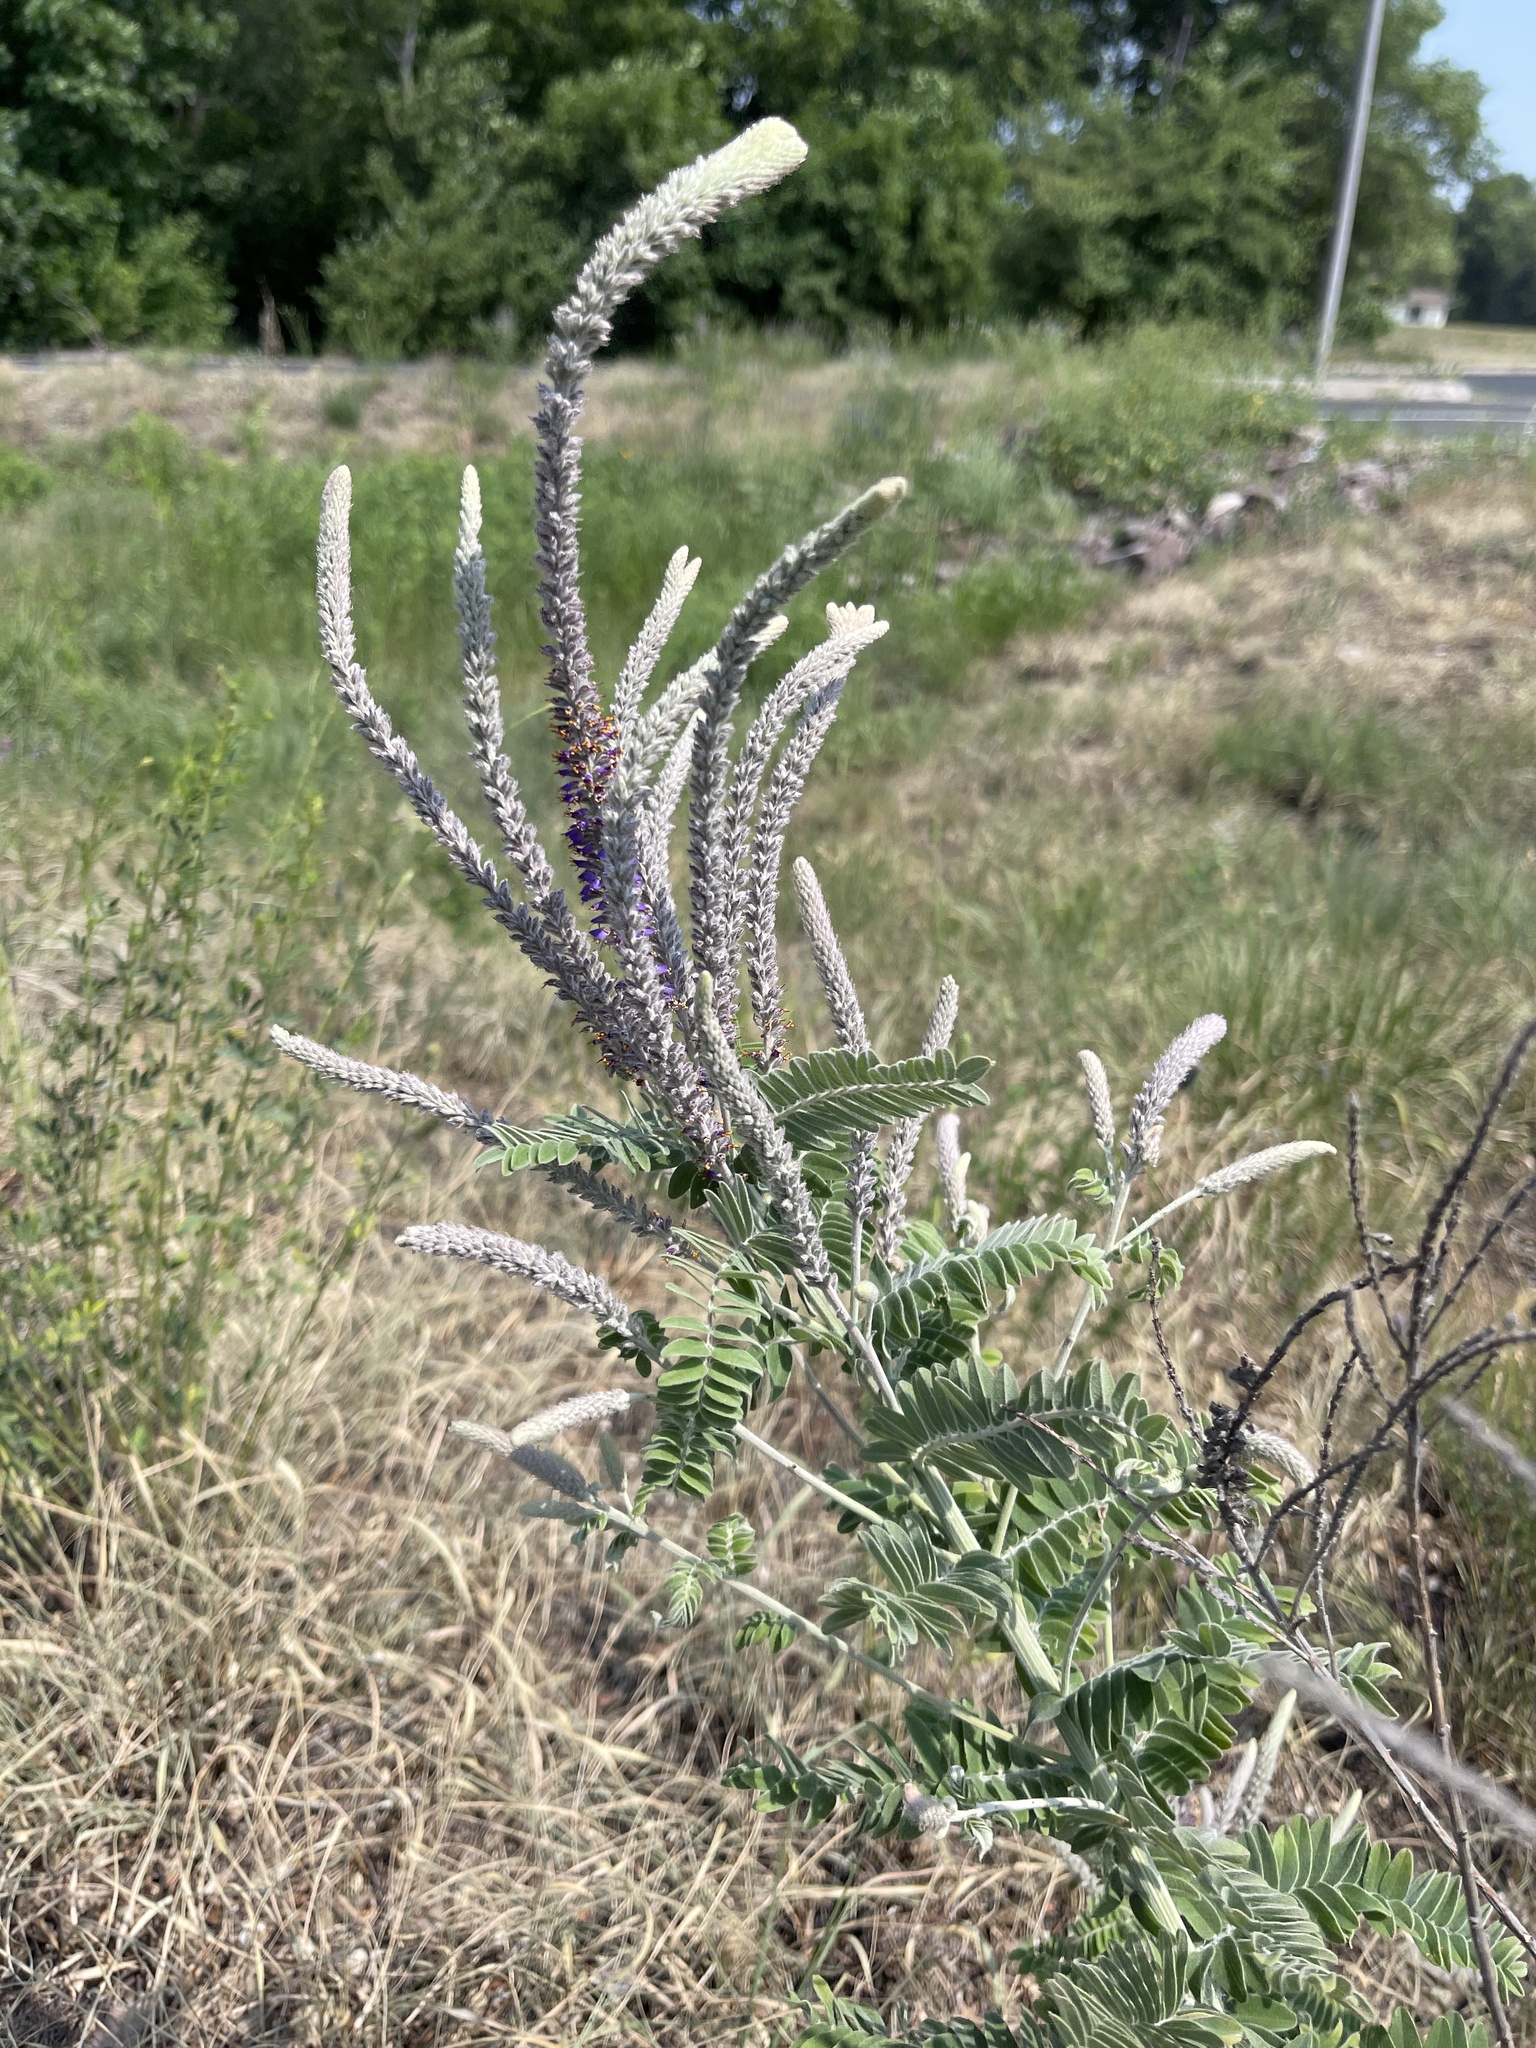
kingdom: Plantae
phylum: Tracheophyta
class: Magnoliopsida
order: Fabales
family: Fabaceae
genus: Amorpha
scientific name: Amorpha canescens
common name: Leadplant
